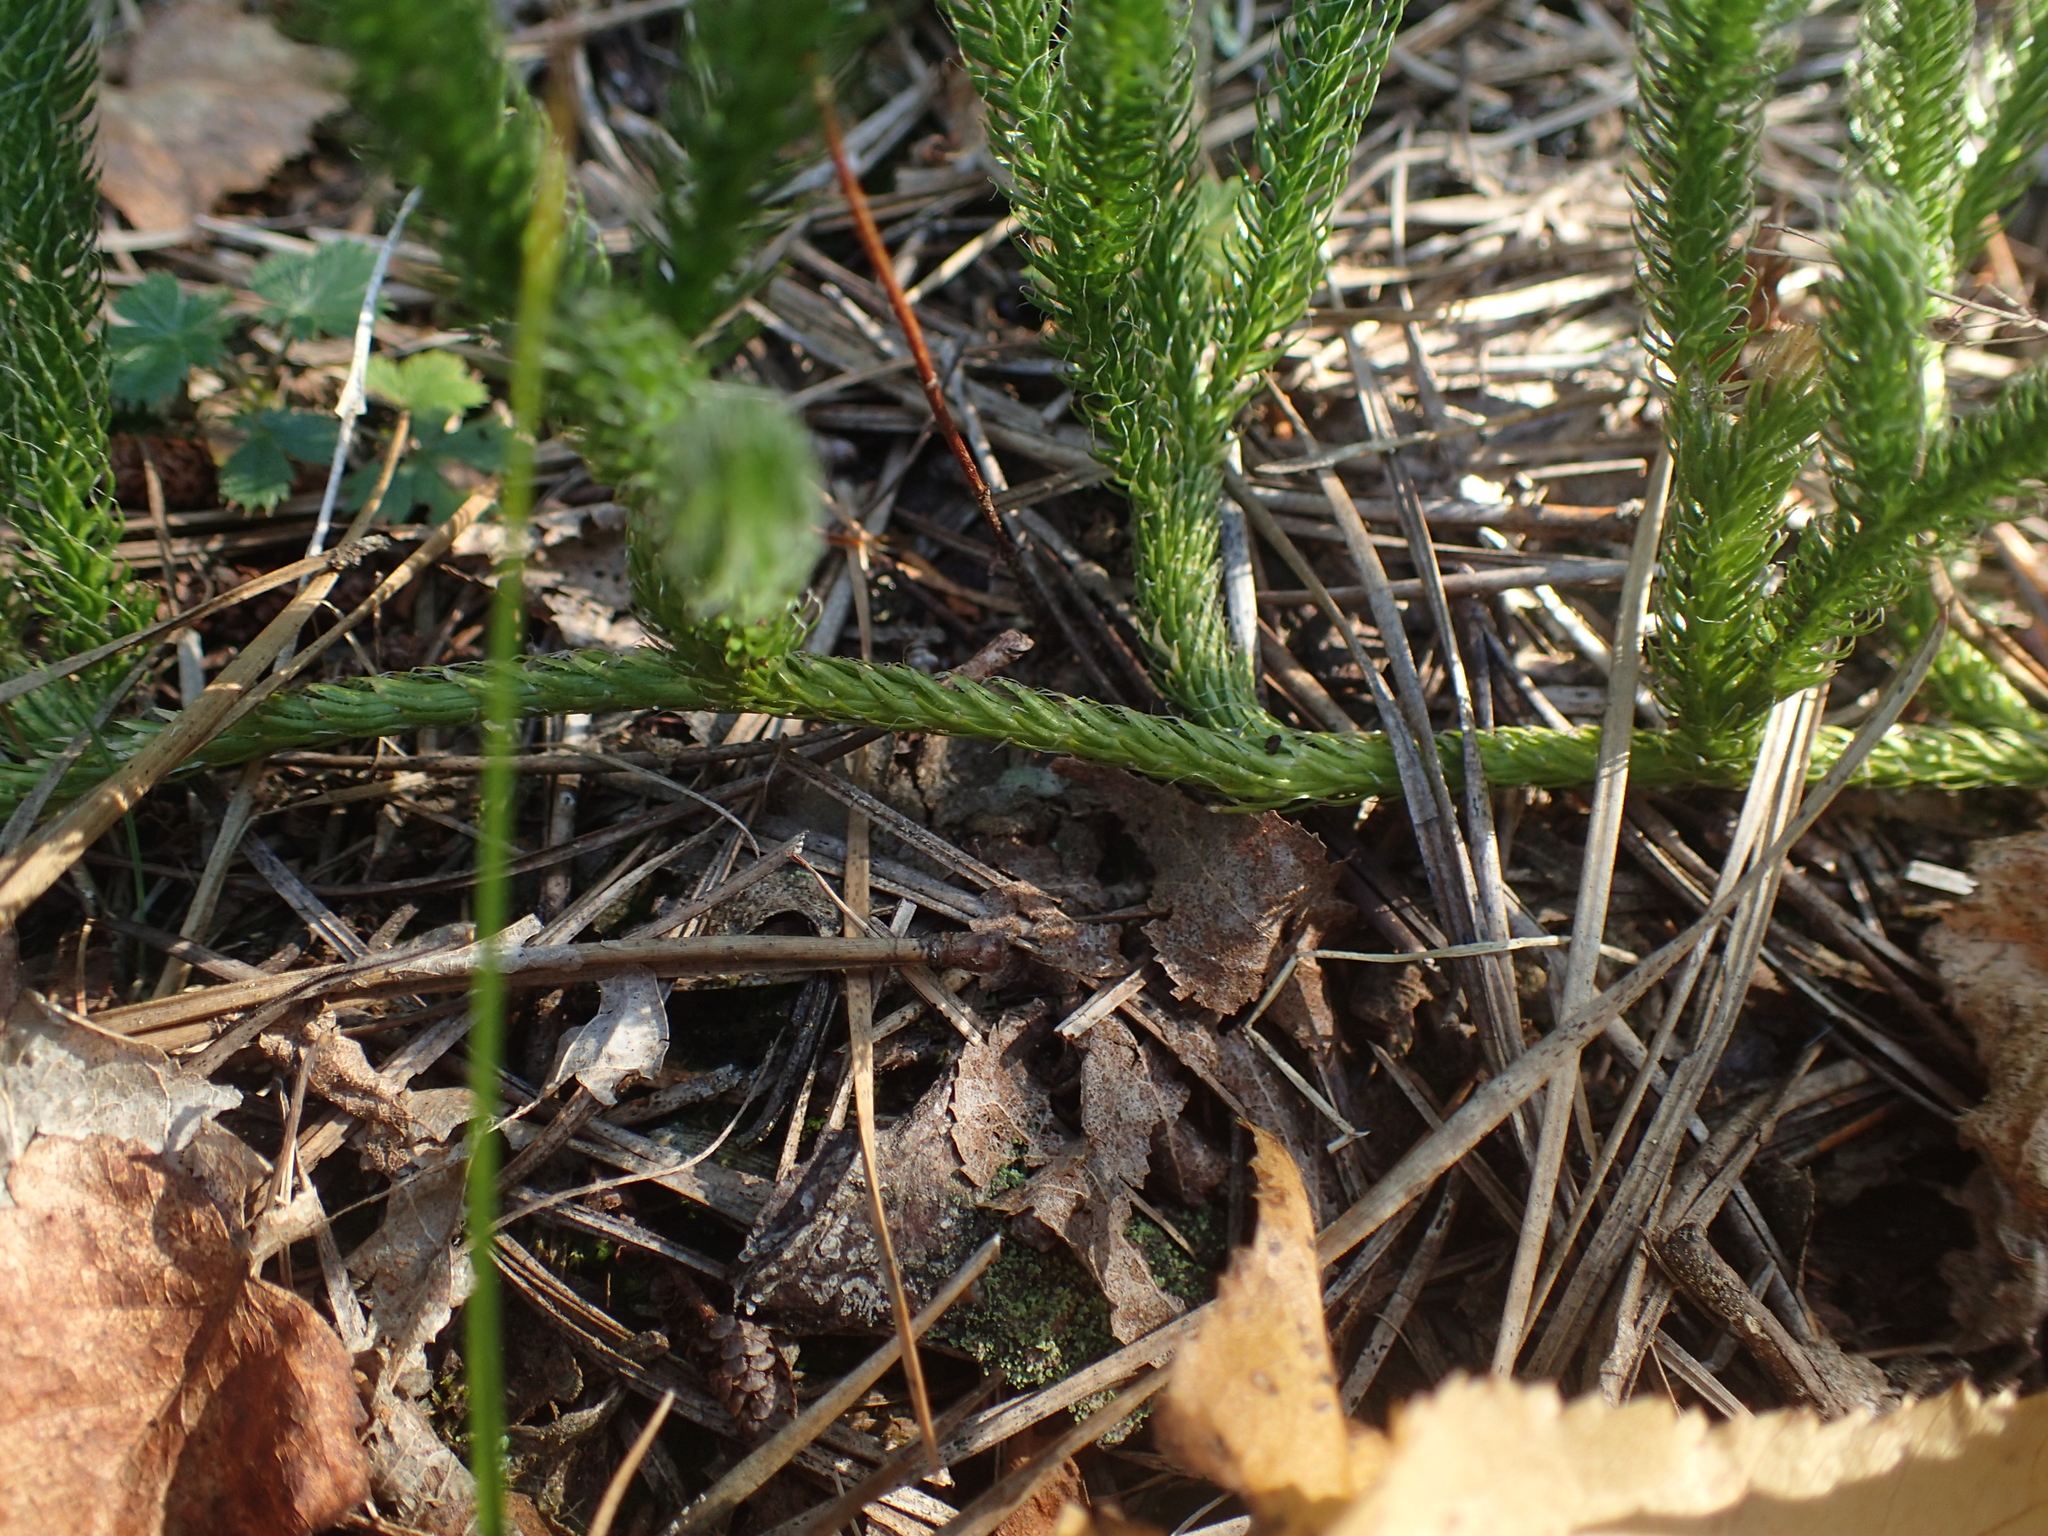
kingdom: Plantae
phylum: Tracheophyta
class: Lycopodiopsida
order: Lycopodiales
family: Lycopodiaceae
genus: Lycopodium
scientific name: Lycopodium lagopus
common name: One-cone clubmoss
